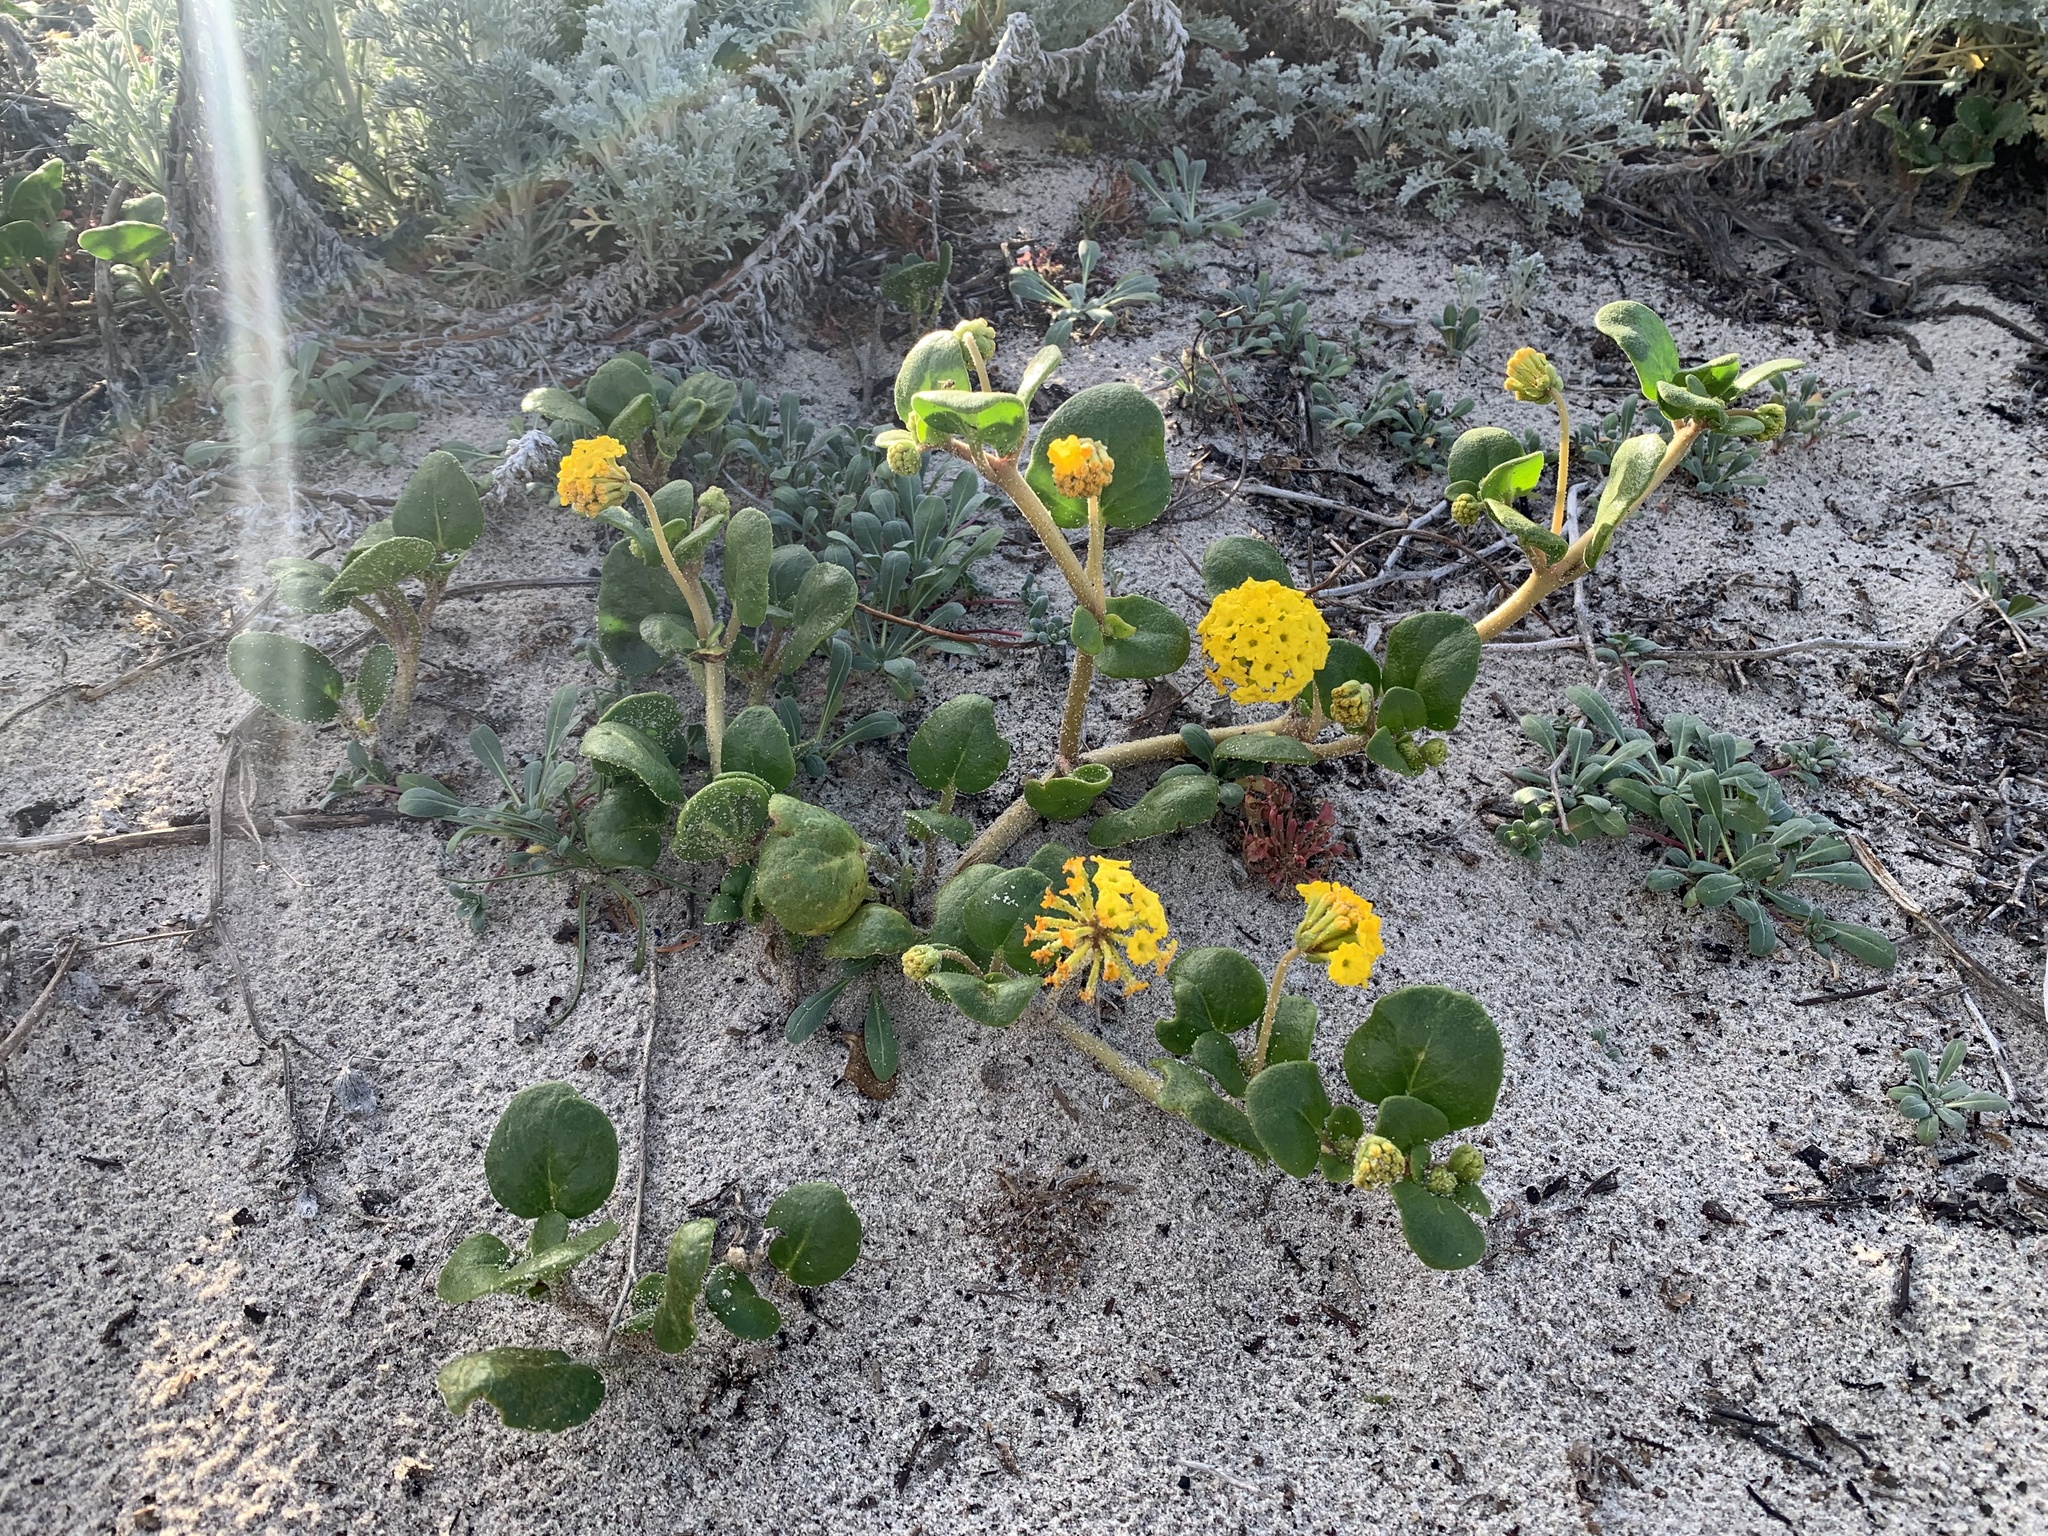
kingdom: Plantae
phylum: Tracheophyta
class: Magnoliopsida
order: Caryophyllales
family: Nyctaginaceae
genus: Abronia
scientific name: Abronia latifolia
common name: Yellow sand-verbena
